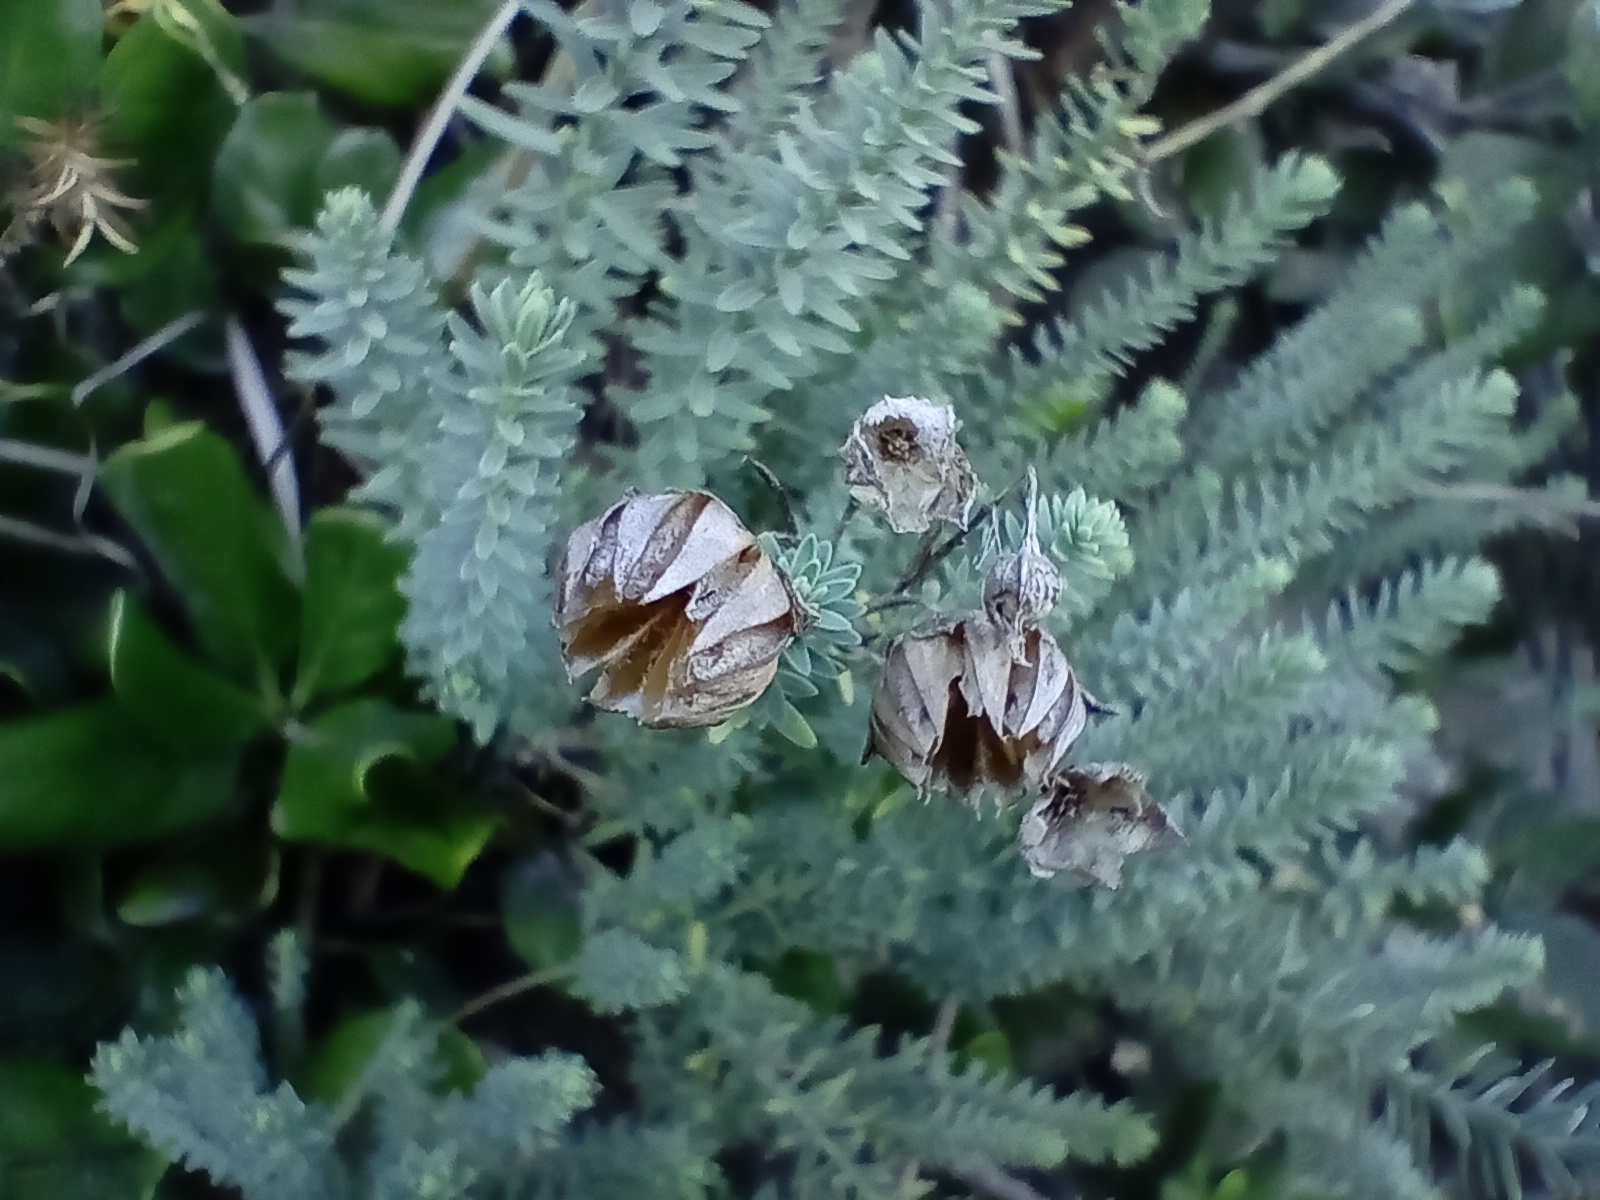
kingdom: Plantae
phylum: Tracheophyta
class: Magnoliopsida
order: Malpighiales
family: Linaceae
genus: Linum
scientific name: Linum monogynum
